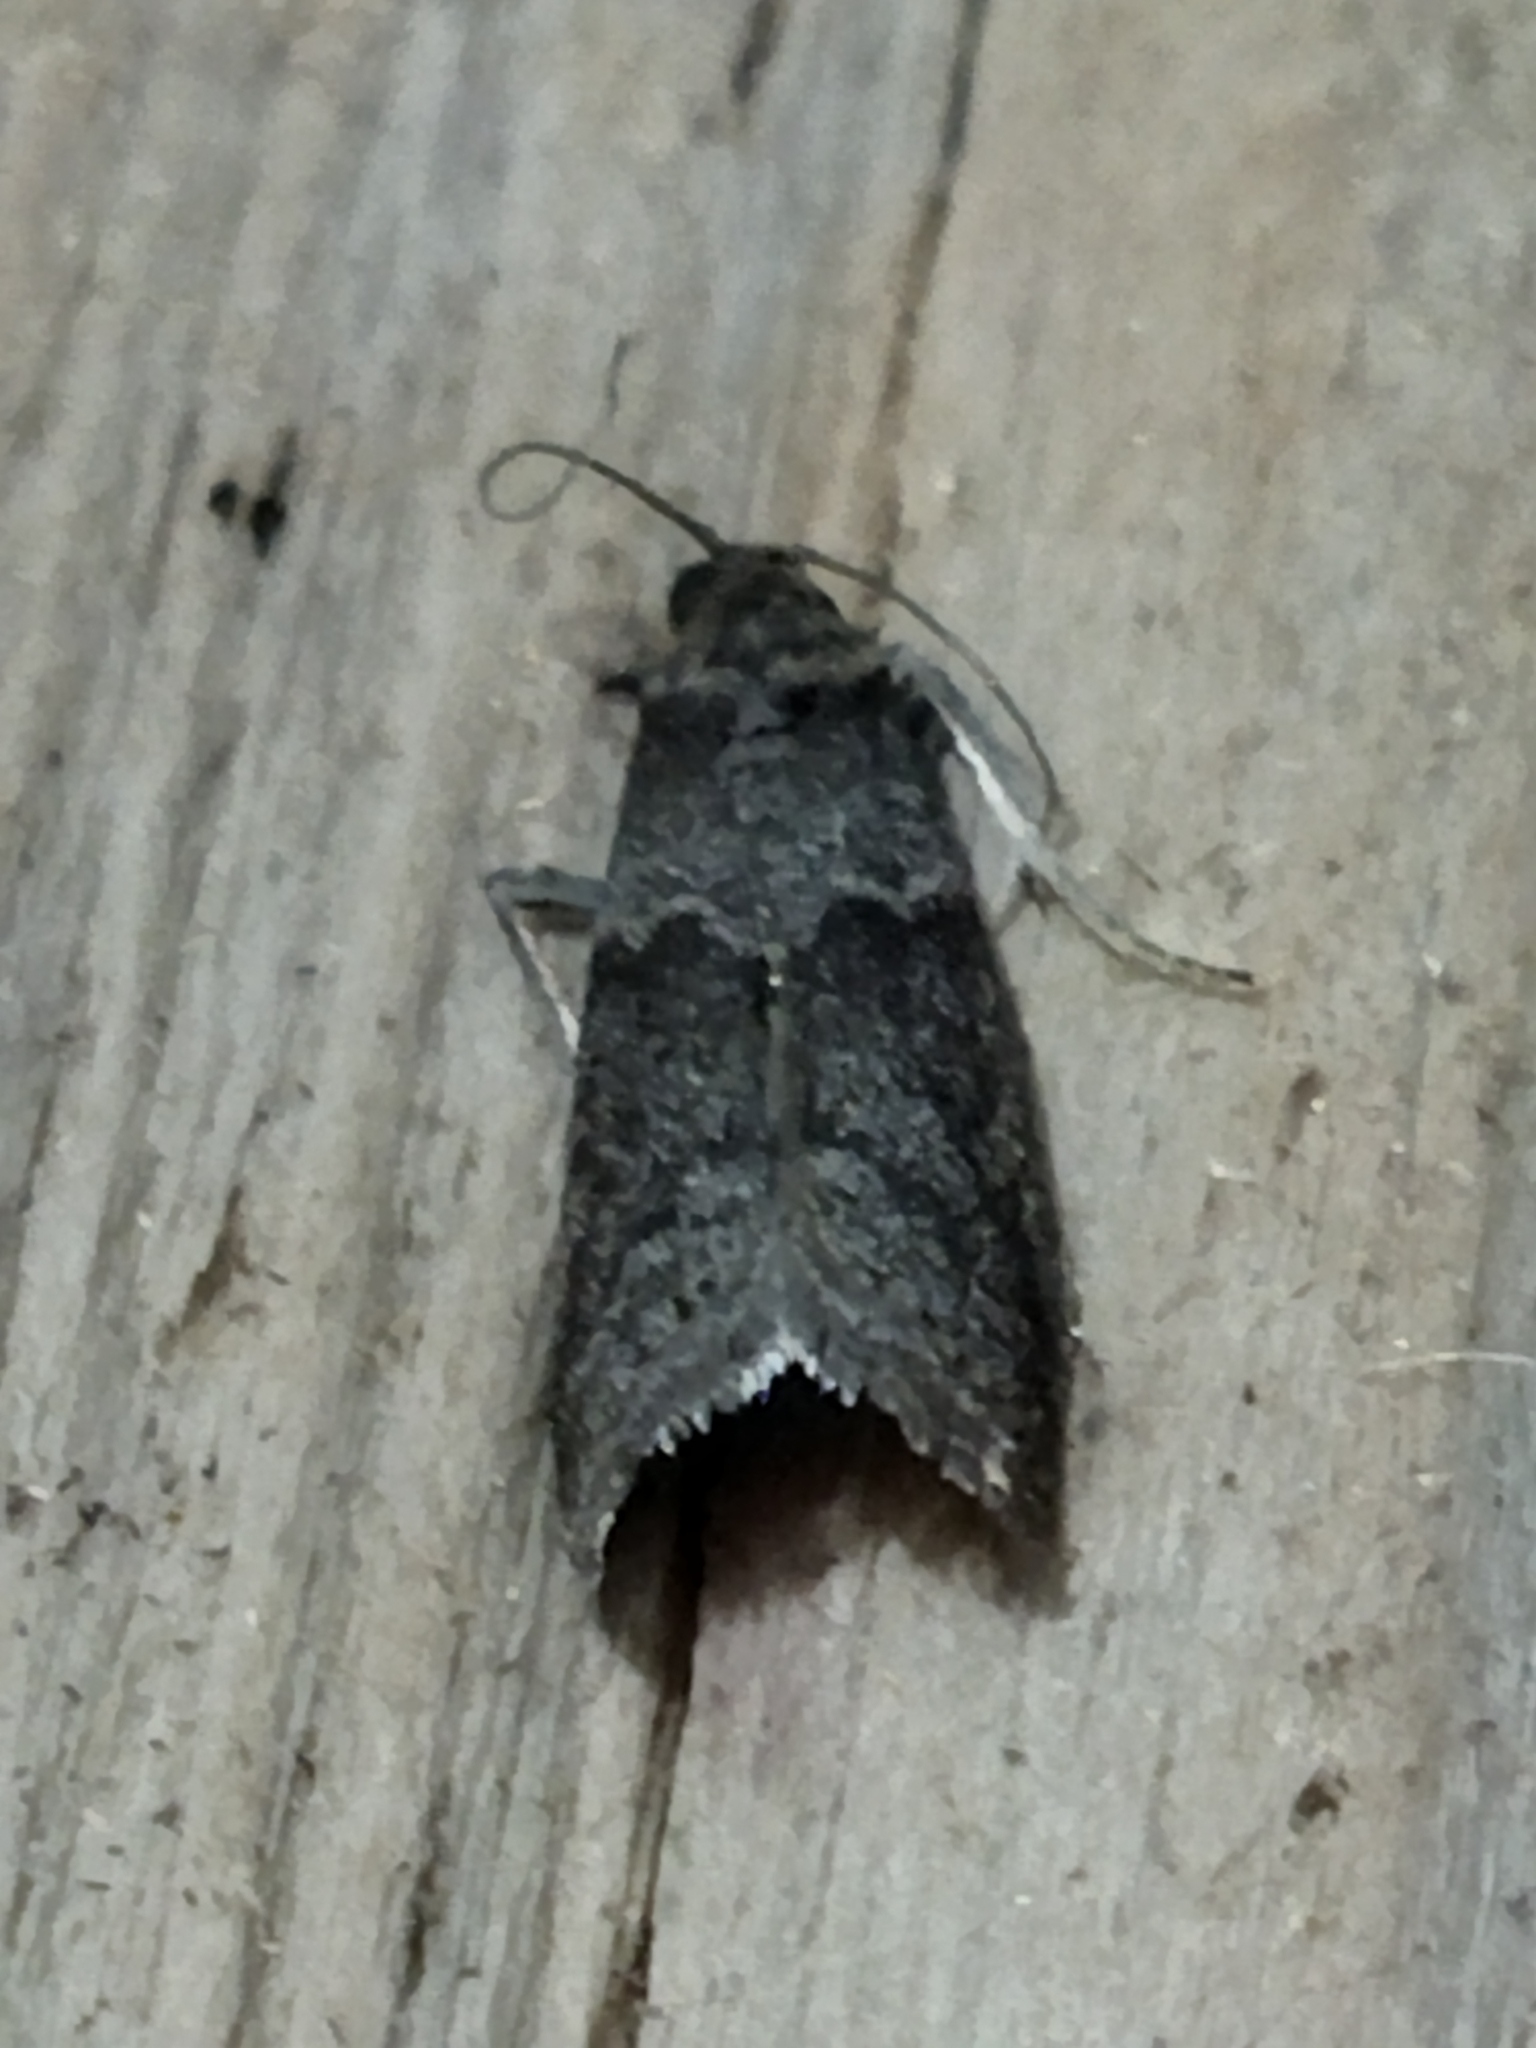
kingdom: Animalia
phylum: Arthropoda
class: Insecta
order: Lepidoptera
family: Pyralidae
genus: Ectomyelois
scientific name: Ectomyelois ceratoniae
